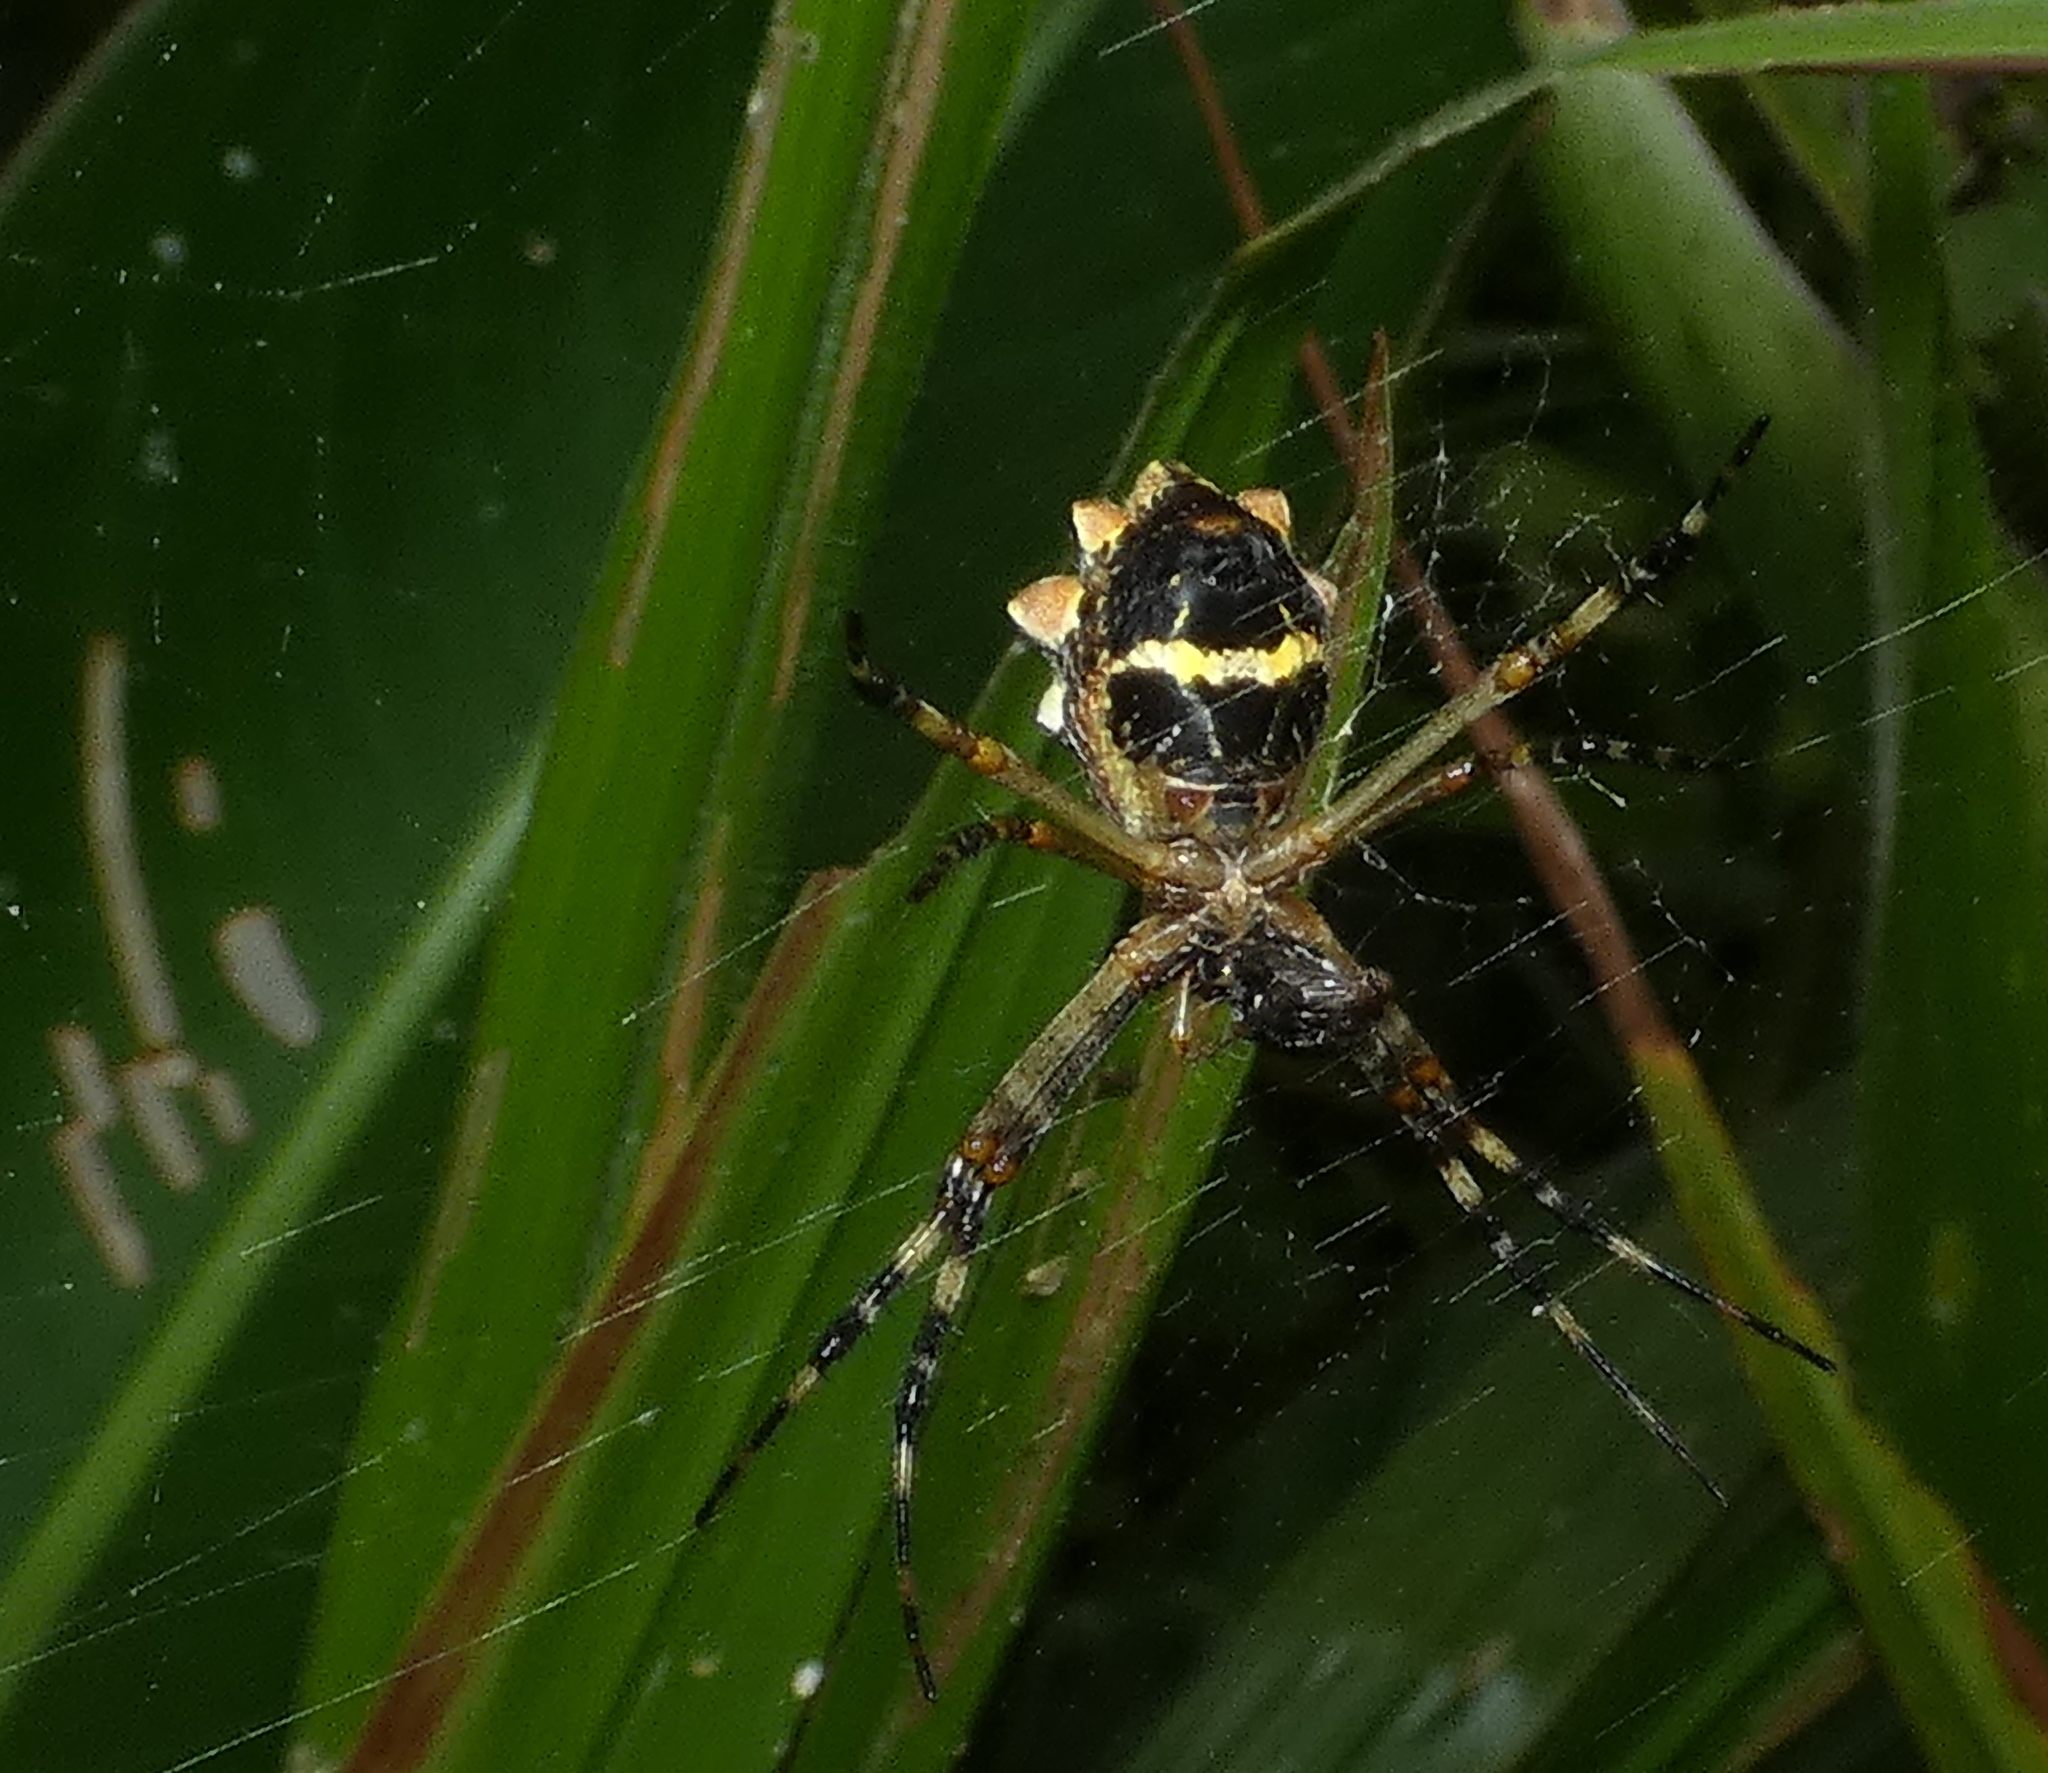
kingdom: Animalia
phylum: Arthropoda
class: Arachnida
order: Araneae
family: Araneidae
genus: Argiope
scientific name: Argiope argentata
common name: Orb weavers
